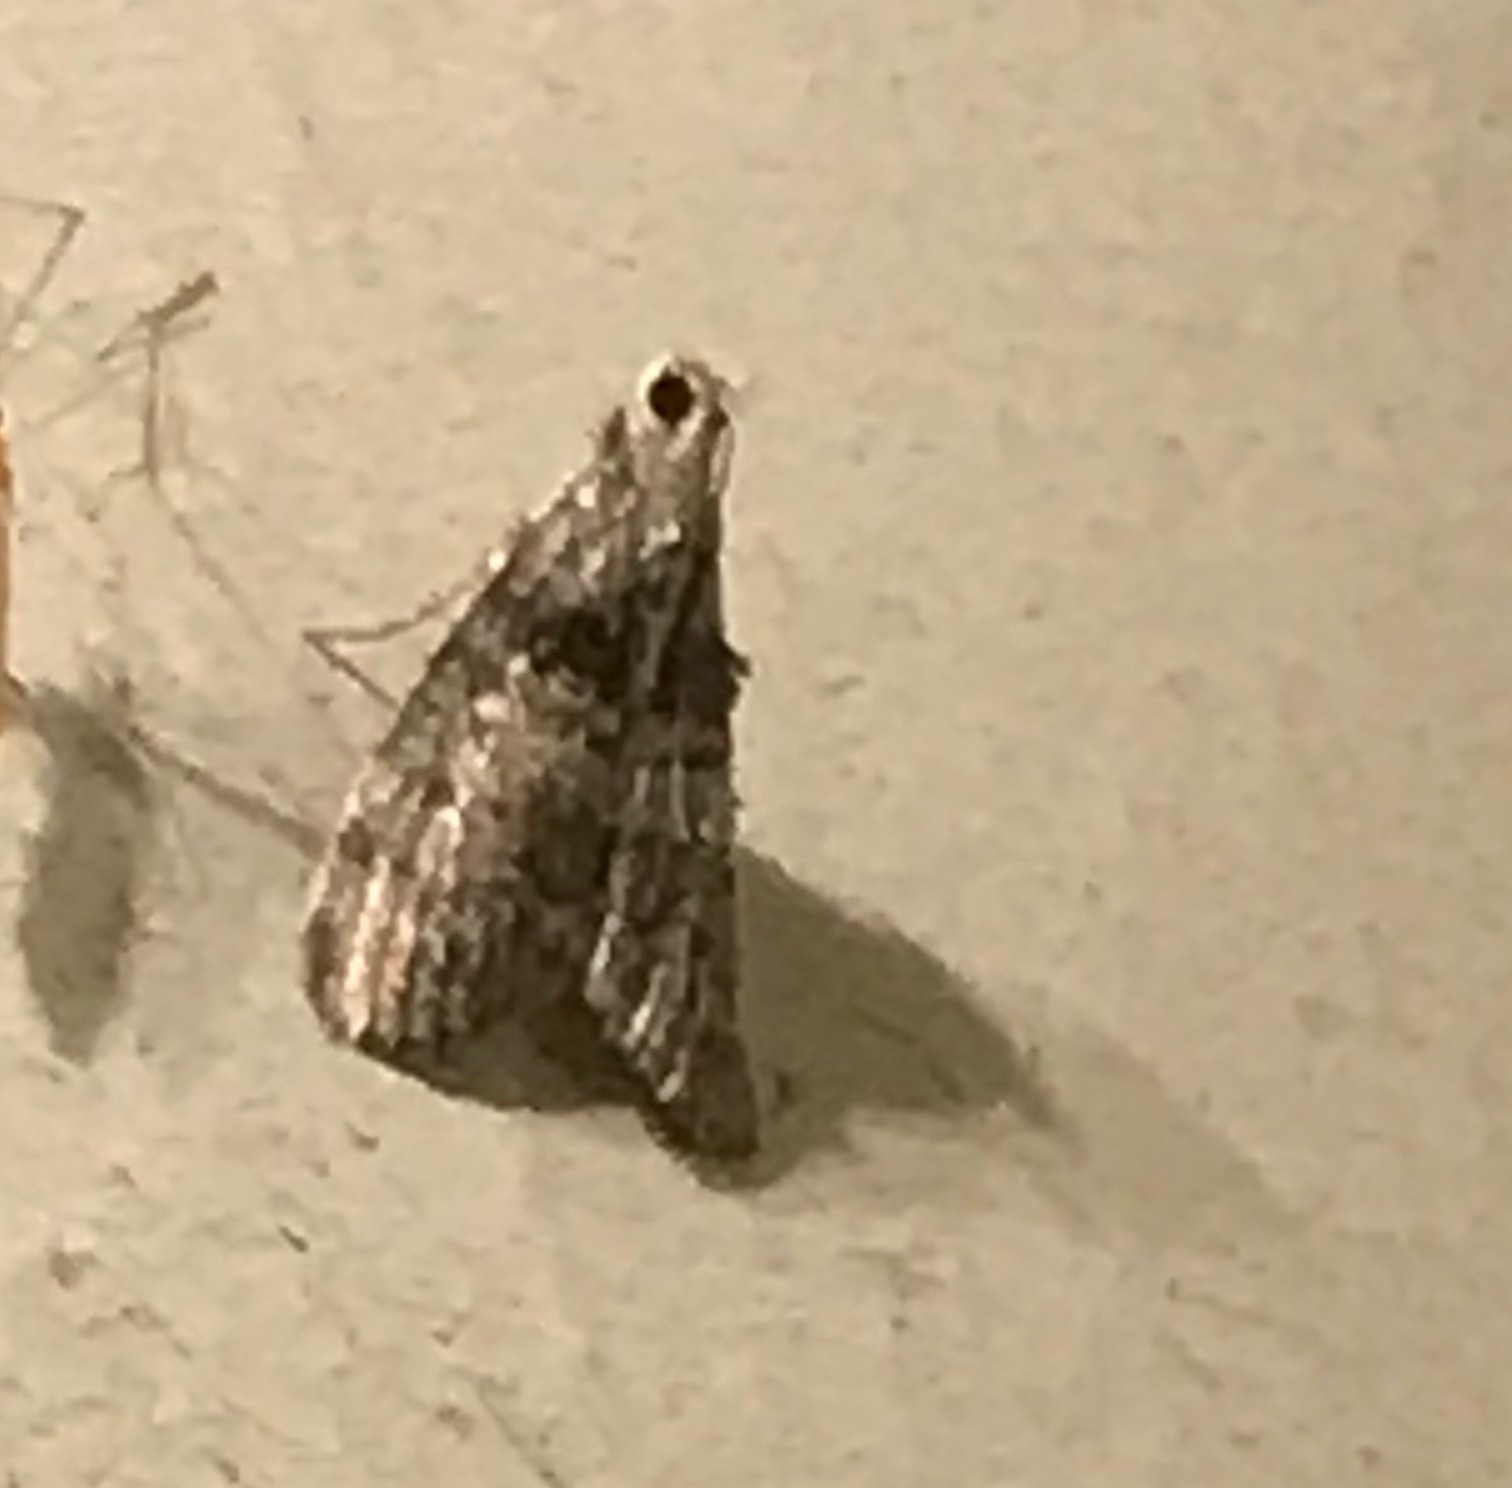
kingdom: Animalia
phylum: Arthropoda
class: Insecta
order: Lepidoptera
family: Pyralidae
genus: Pococera
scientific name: Pococera asperatella
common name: Maple webworm moth
